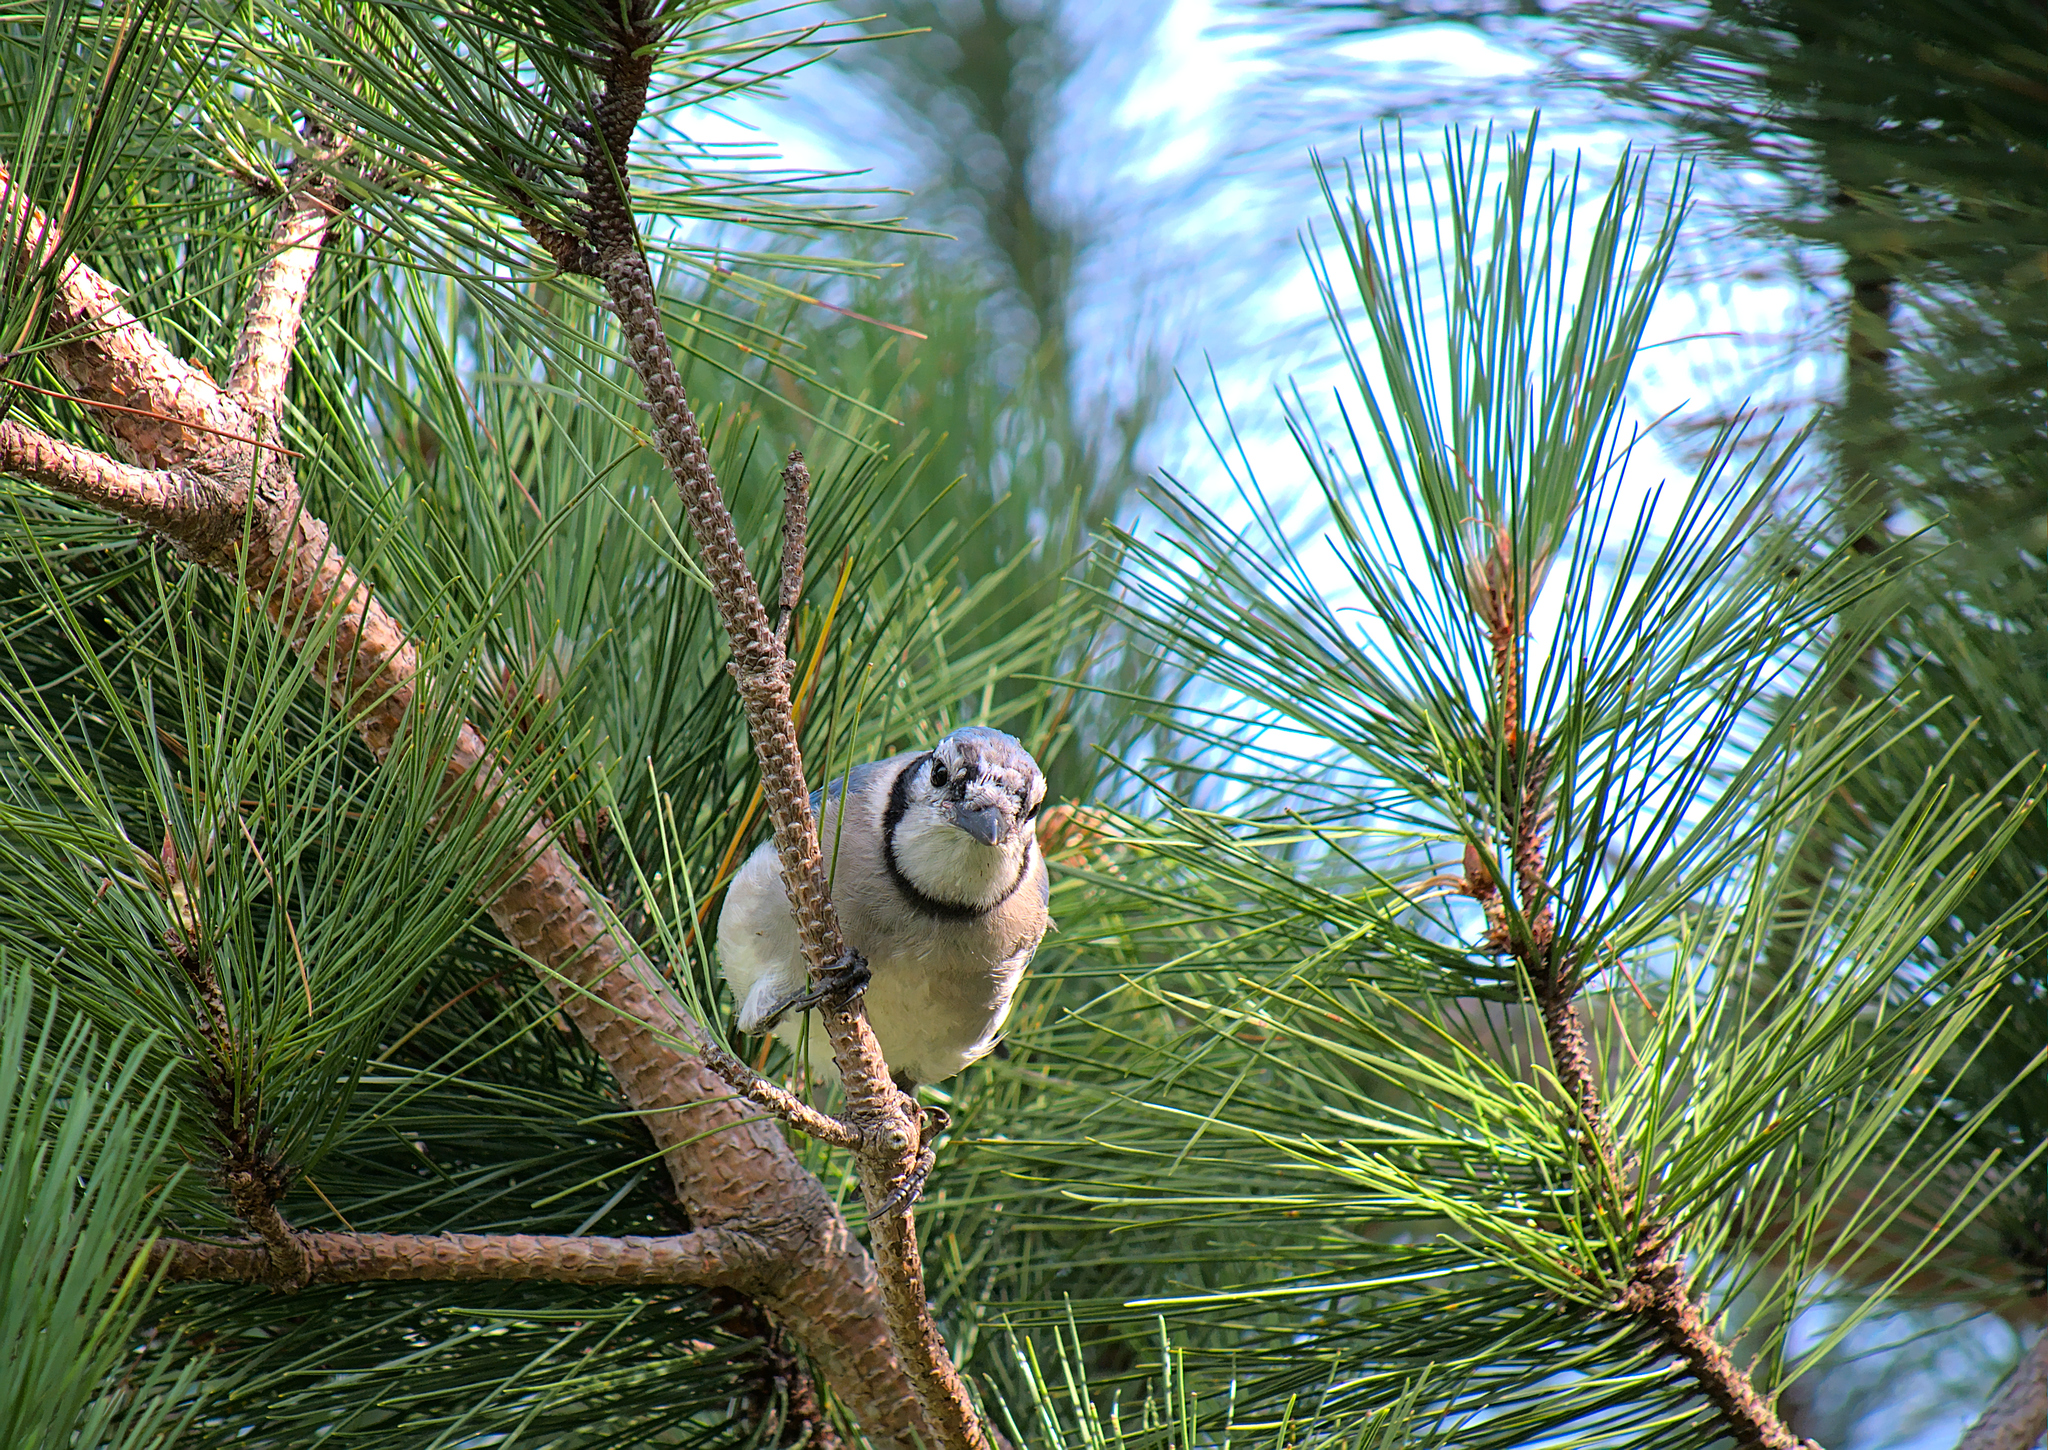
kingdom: Animalia
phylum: Chordata
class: Aves
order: Passeriformes
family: Corvidae
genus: Cyanocitta
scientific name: Cyanocitta cristata
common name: Blue jay
